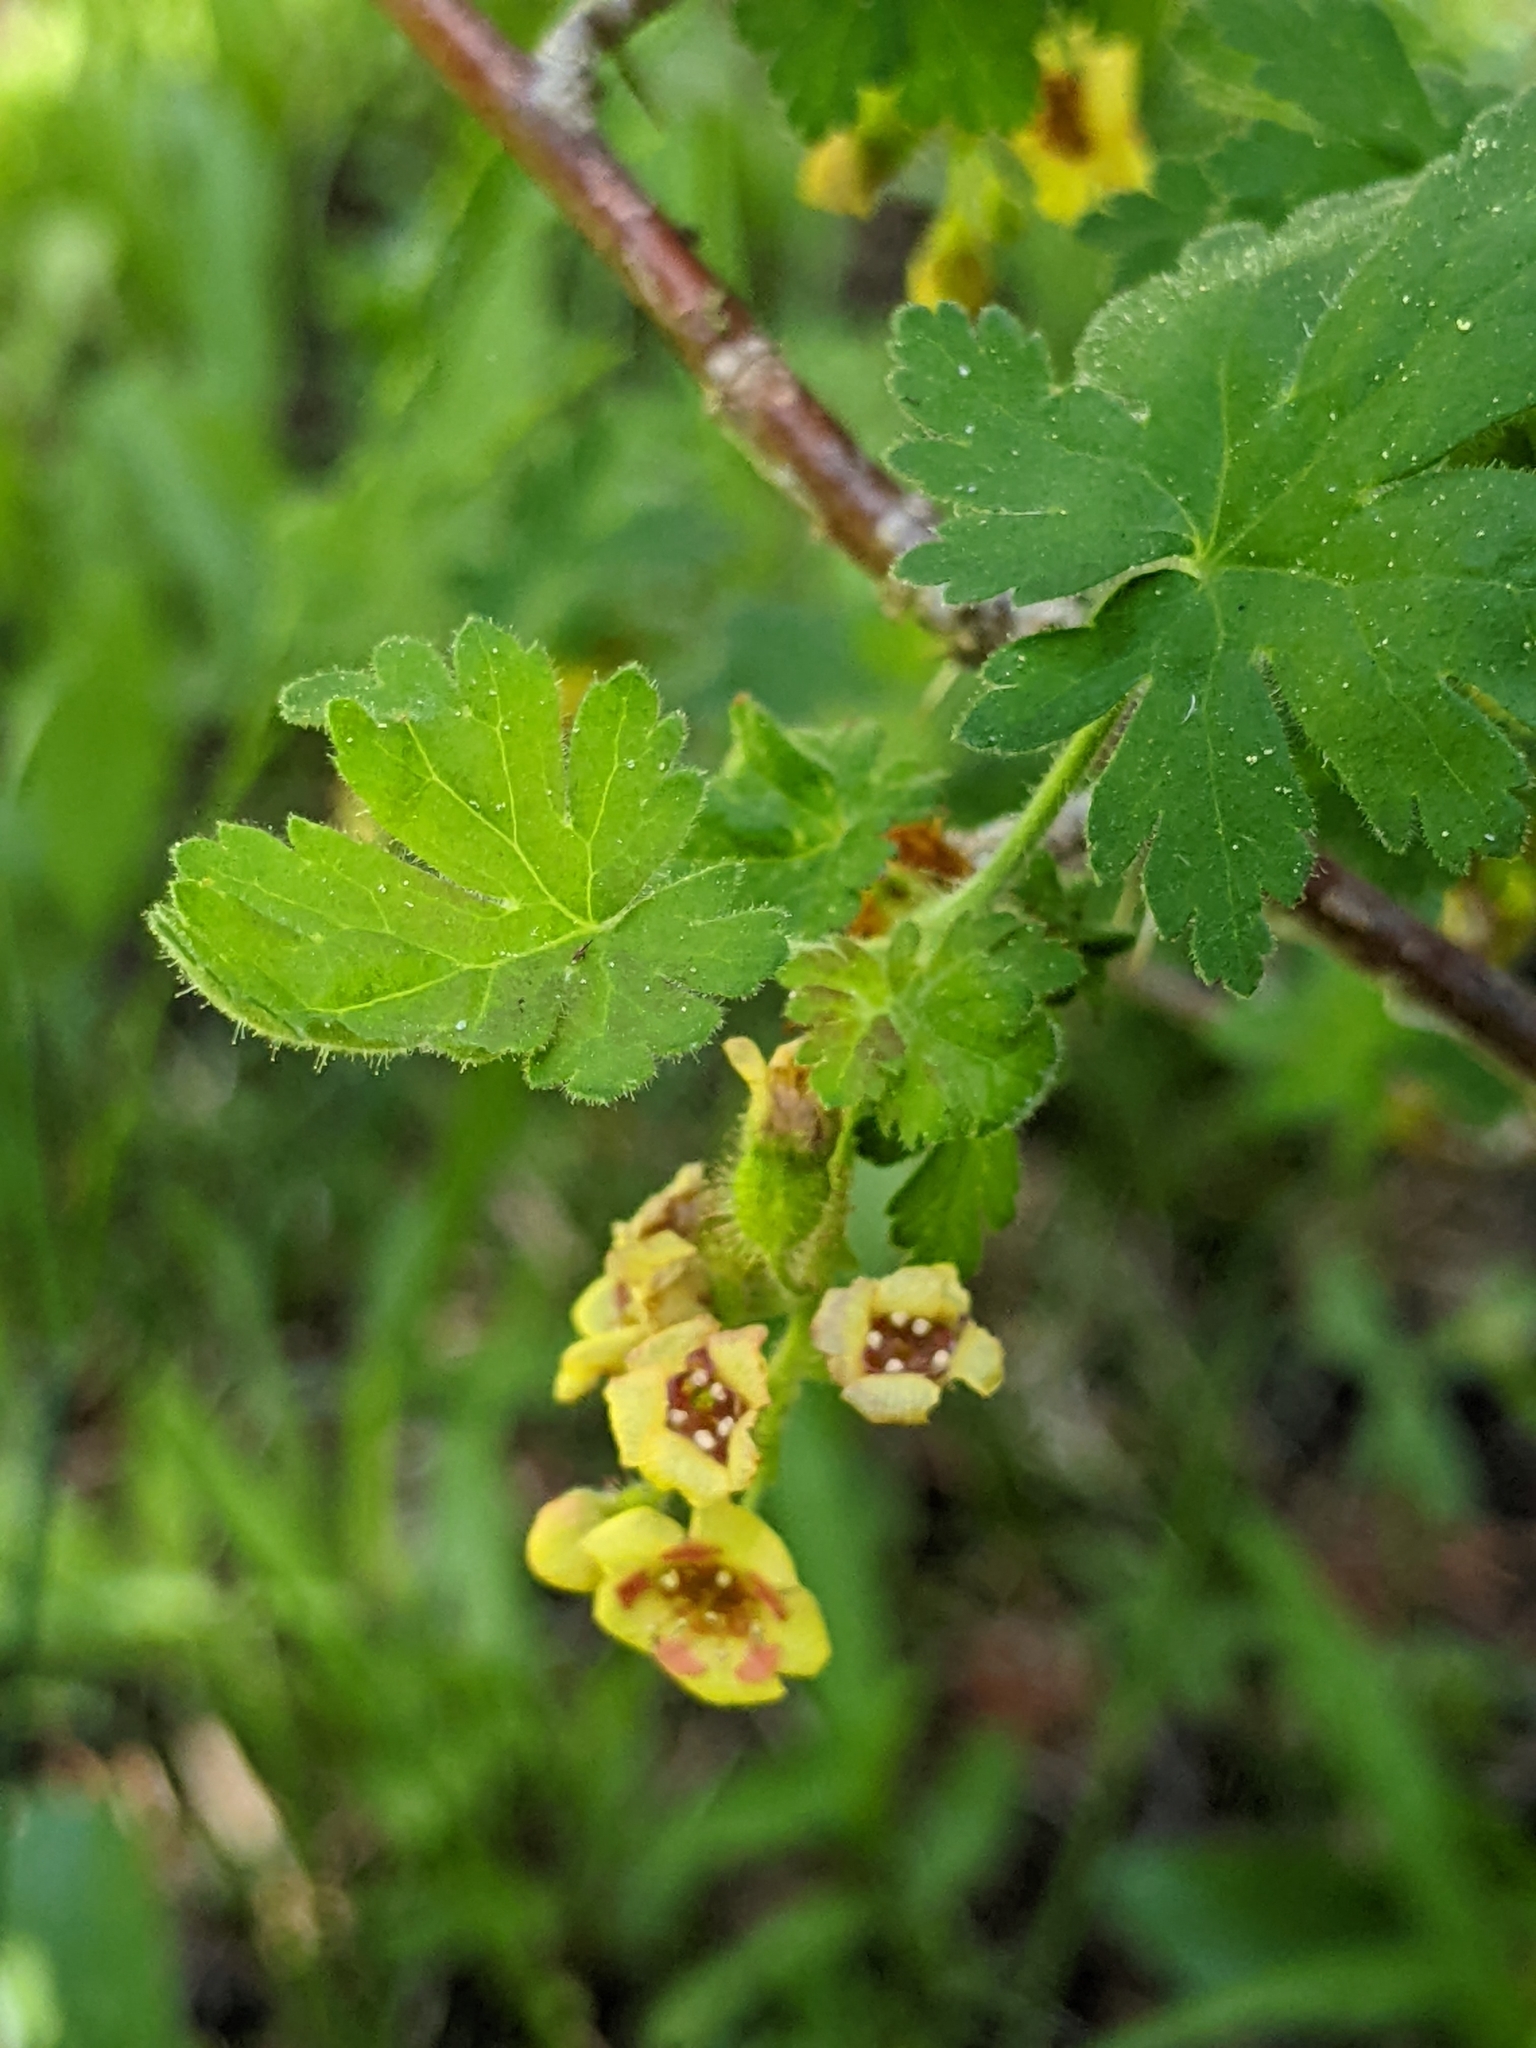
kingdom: Plantae
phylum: Tracheophyta
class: Magnoliopsida
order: Saxifragales
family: Grossulariaceae
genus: Ribes
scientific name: Ribes montigenum
